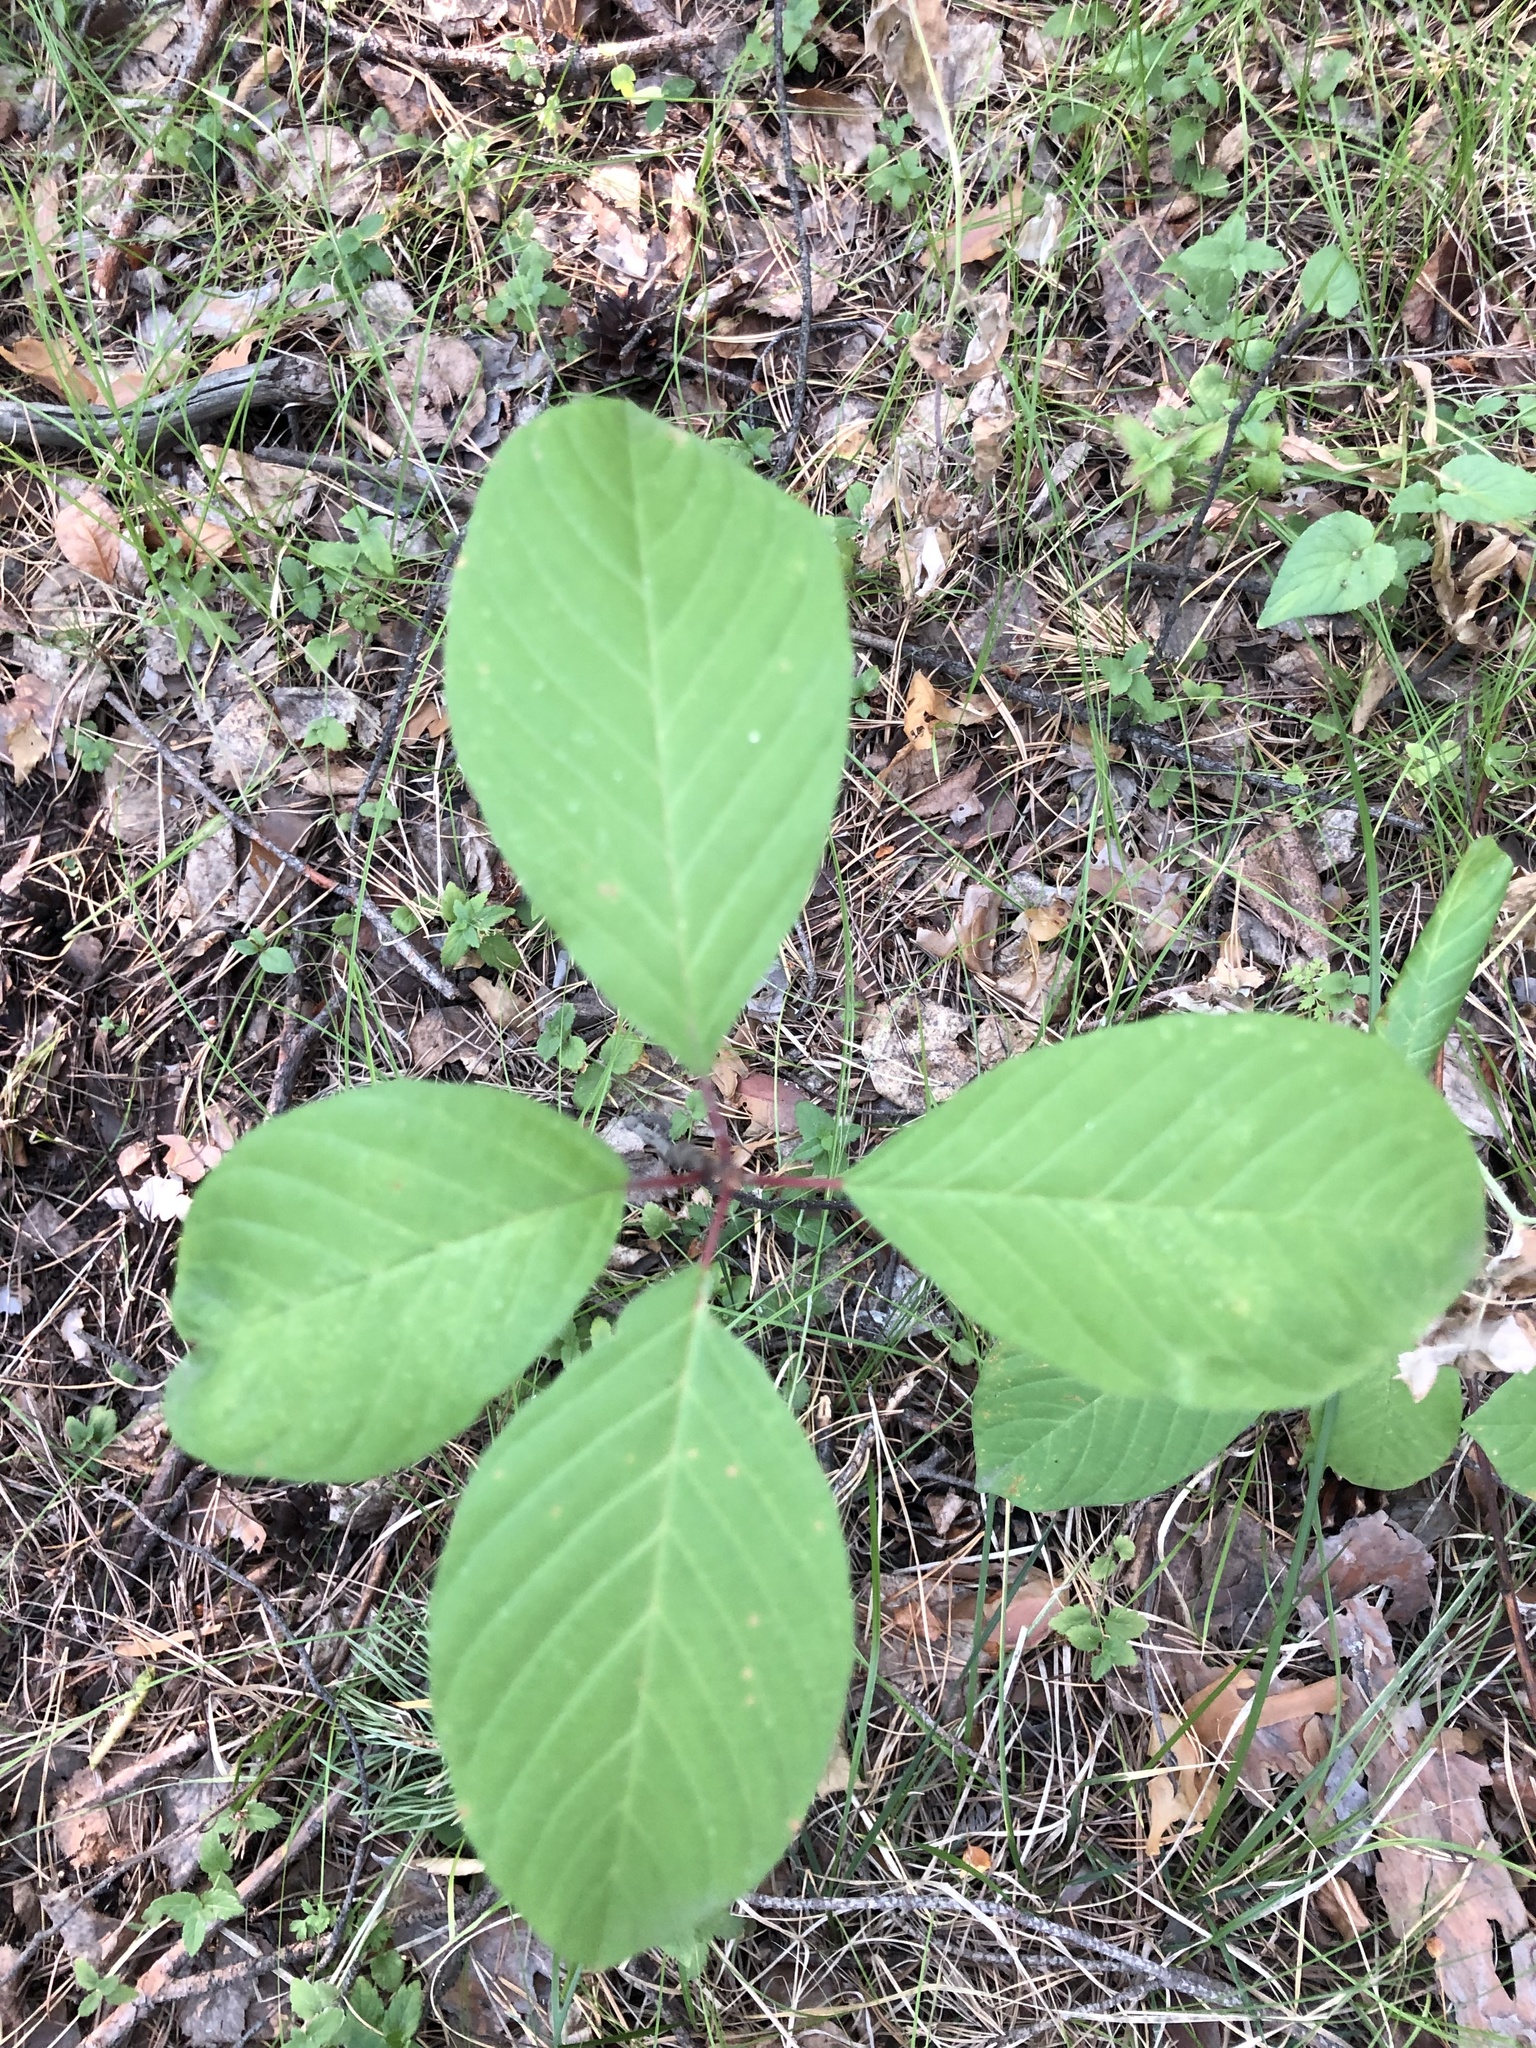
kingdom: Plantae
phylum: Tracheophyta
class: Magnoliopsida
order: Rosales
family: Rhamnaceae
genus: Frangula
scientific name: Frangula alnus
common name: Alder buckthorn
